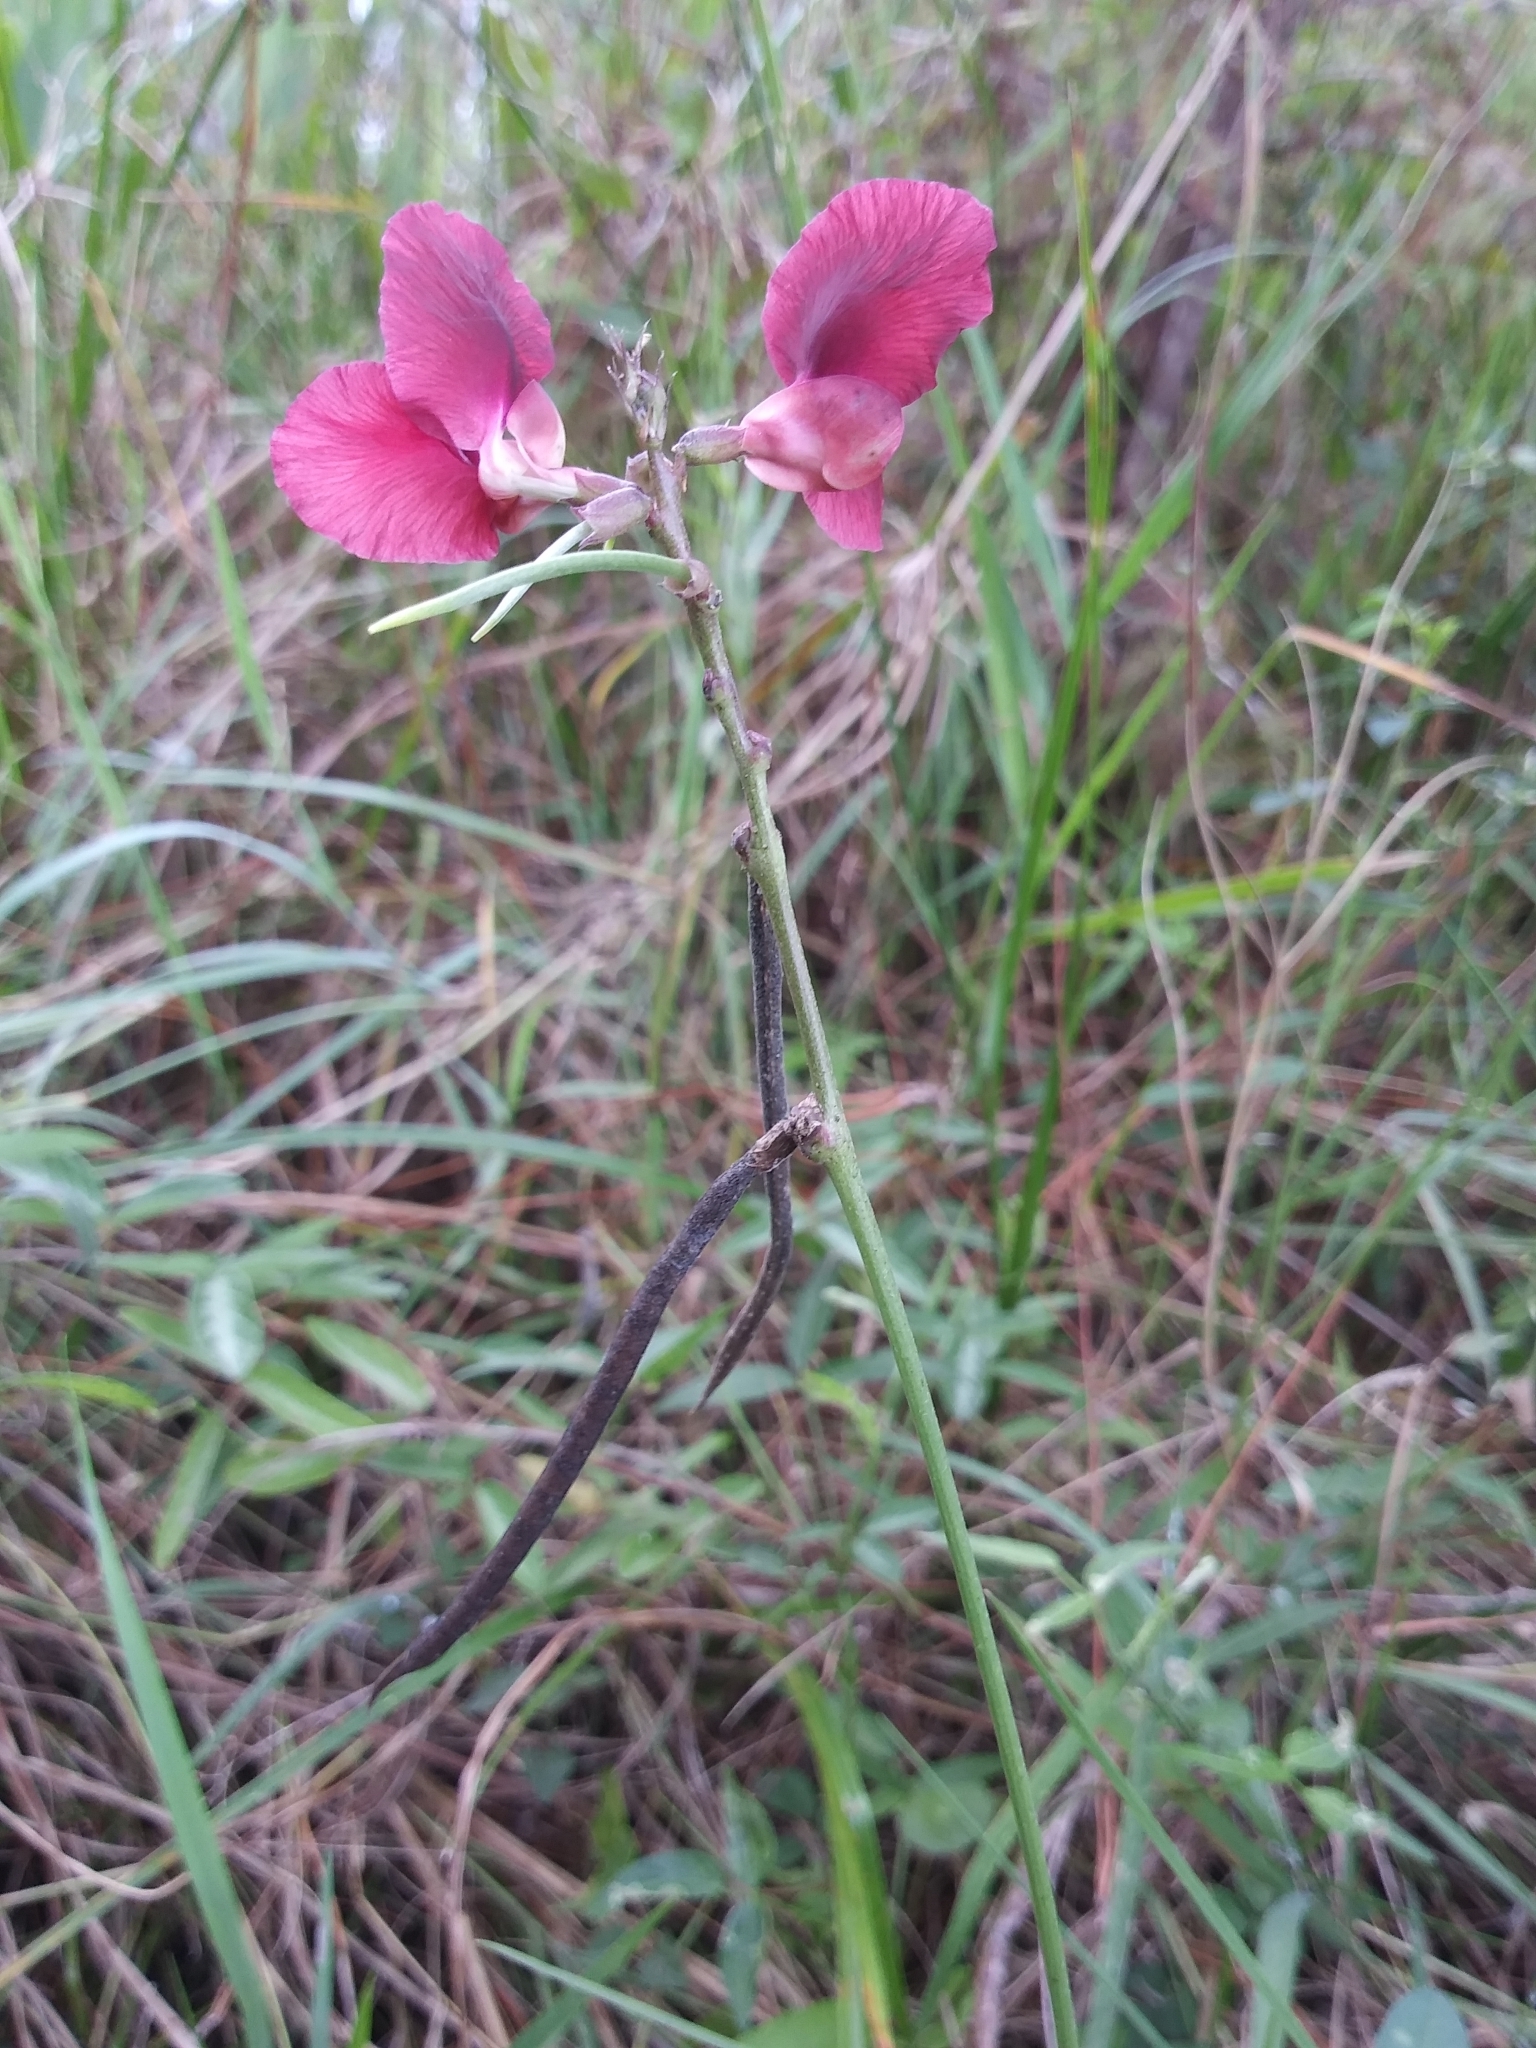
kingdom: Plantae
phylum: Tracheophyta
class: Magnoliopsida
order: Fabales
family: Fabaceae
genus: Macroptilium
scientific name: Macroptilium lathyroides
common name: Wild bushbean
